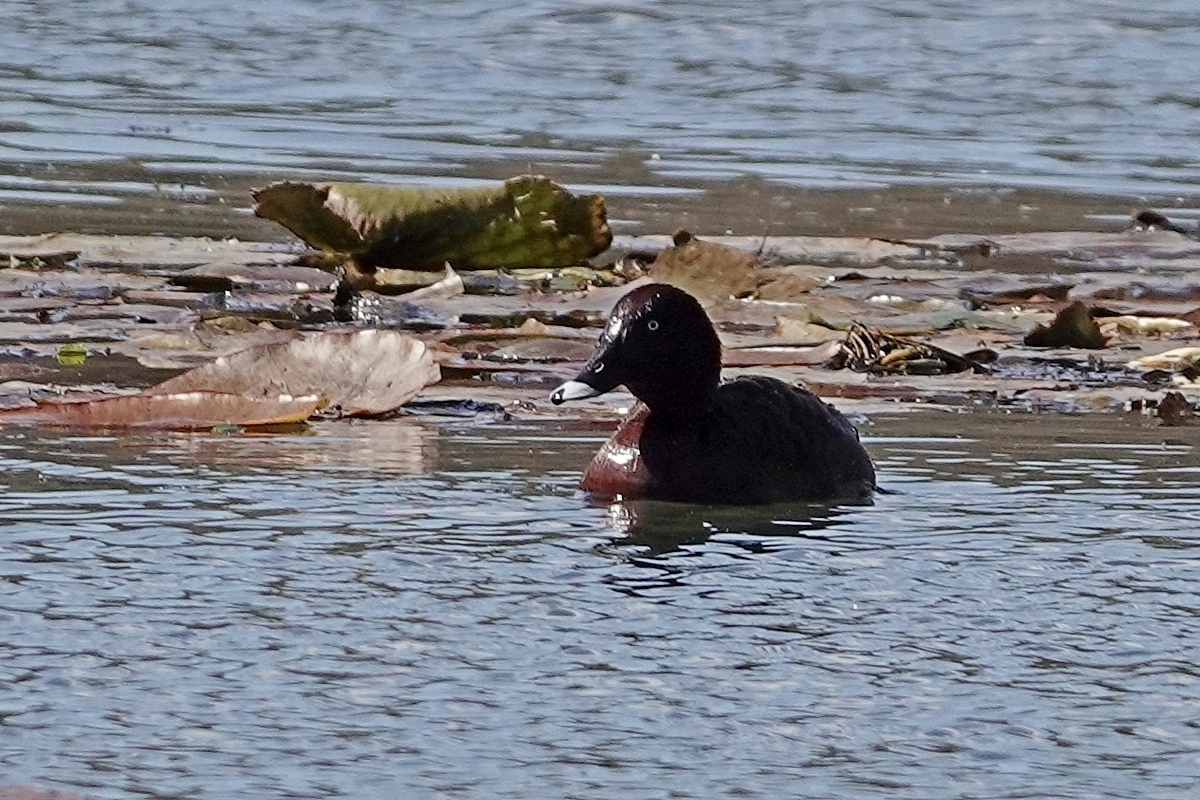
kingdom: Animalia
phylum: Chordata
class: Aves
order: Anseriformes
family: Anatidae
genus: Aythya
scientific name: Aythya australis
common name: Hardhead
